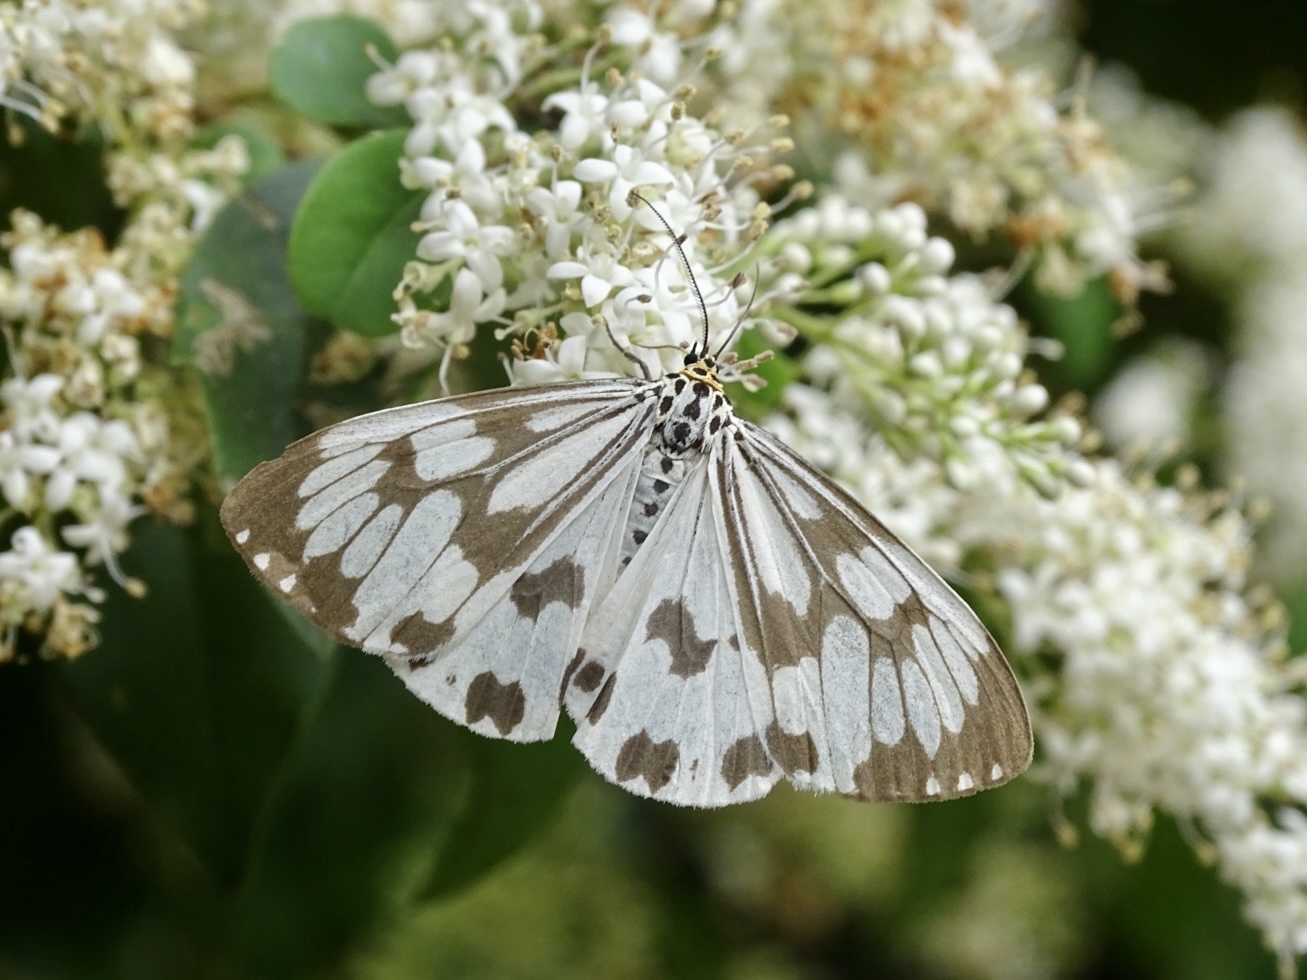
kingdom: Animalia
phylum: Arthropoda
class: Insecta
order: Lepidoptera
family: Erebidae
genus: Nyctemera
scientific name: Nyctemera adversata
